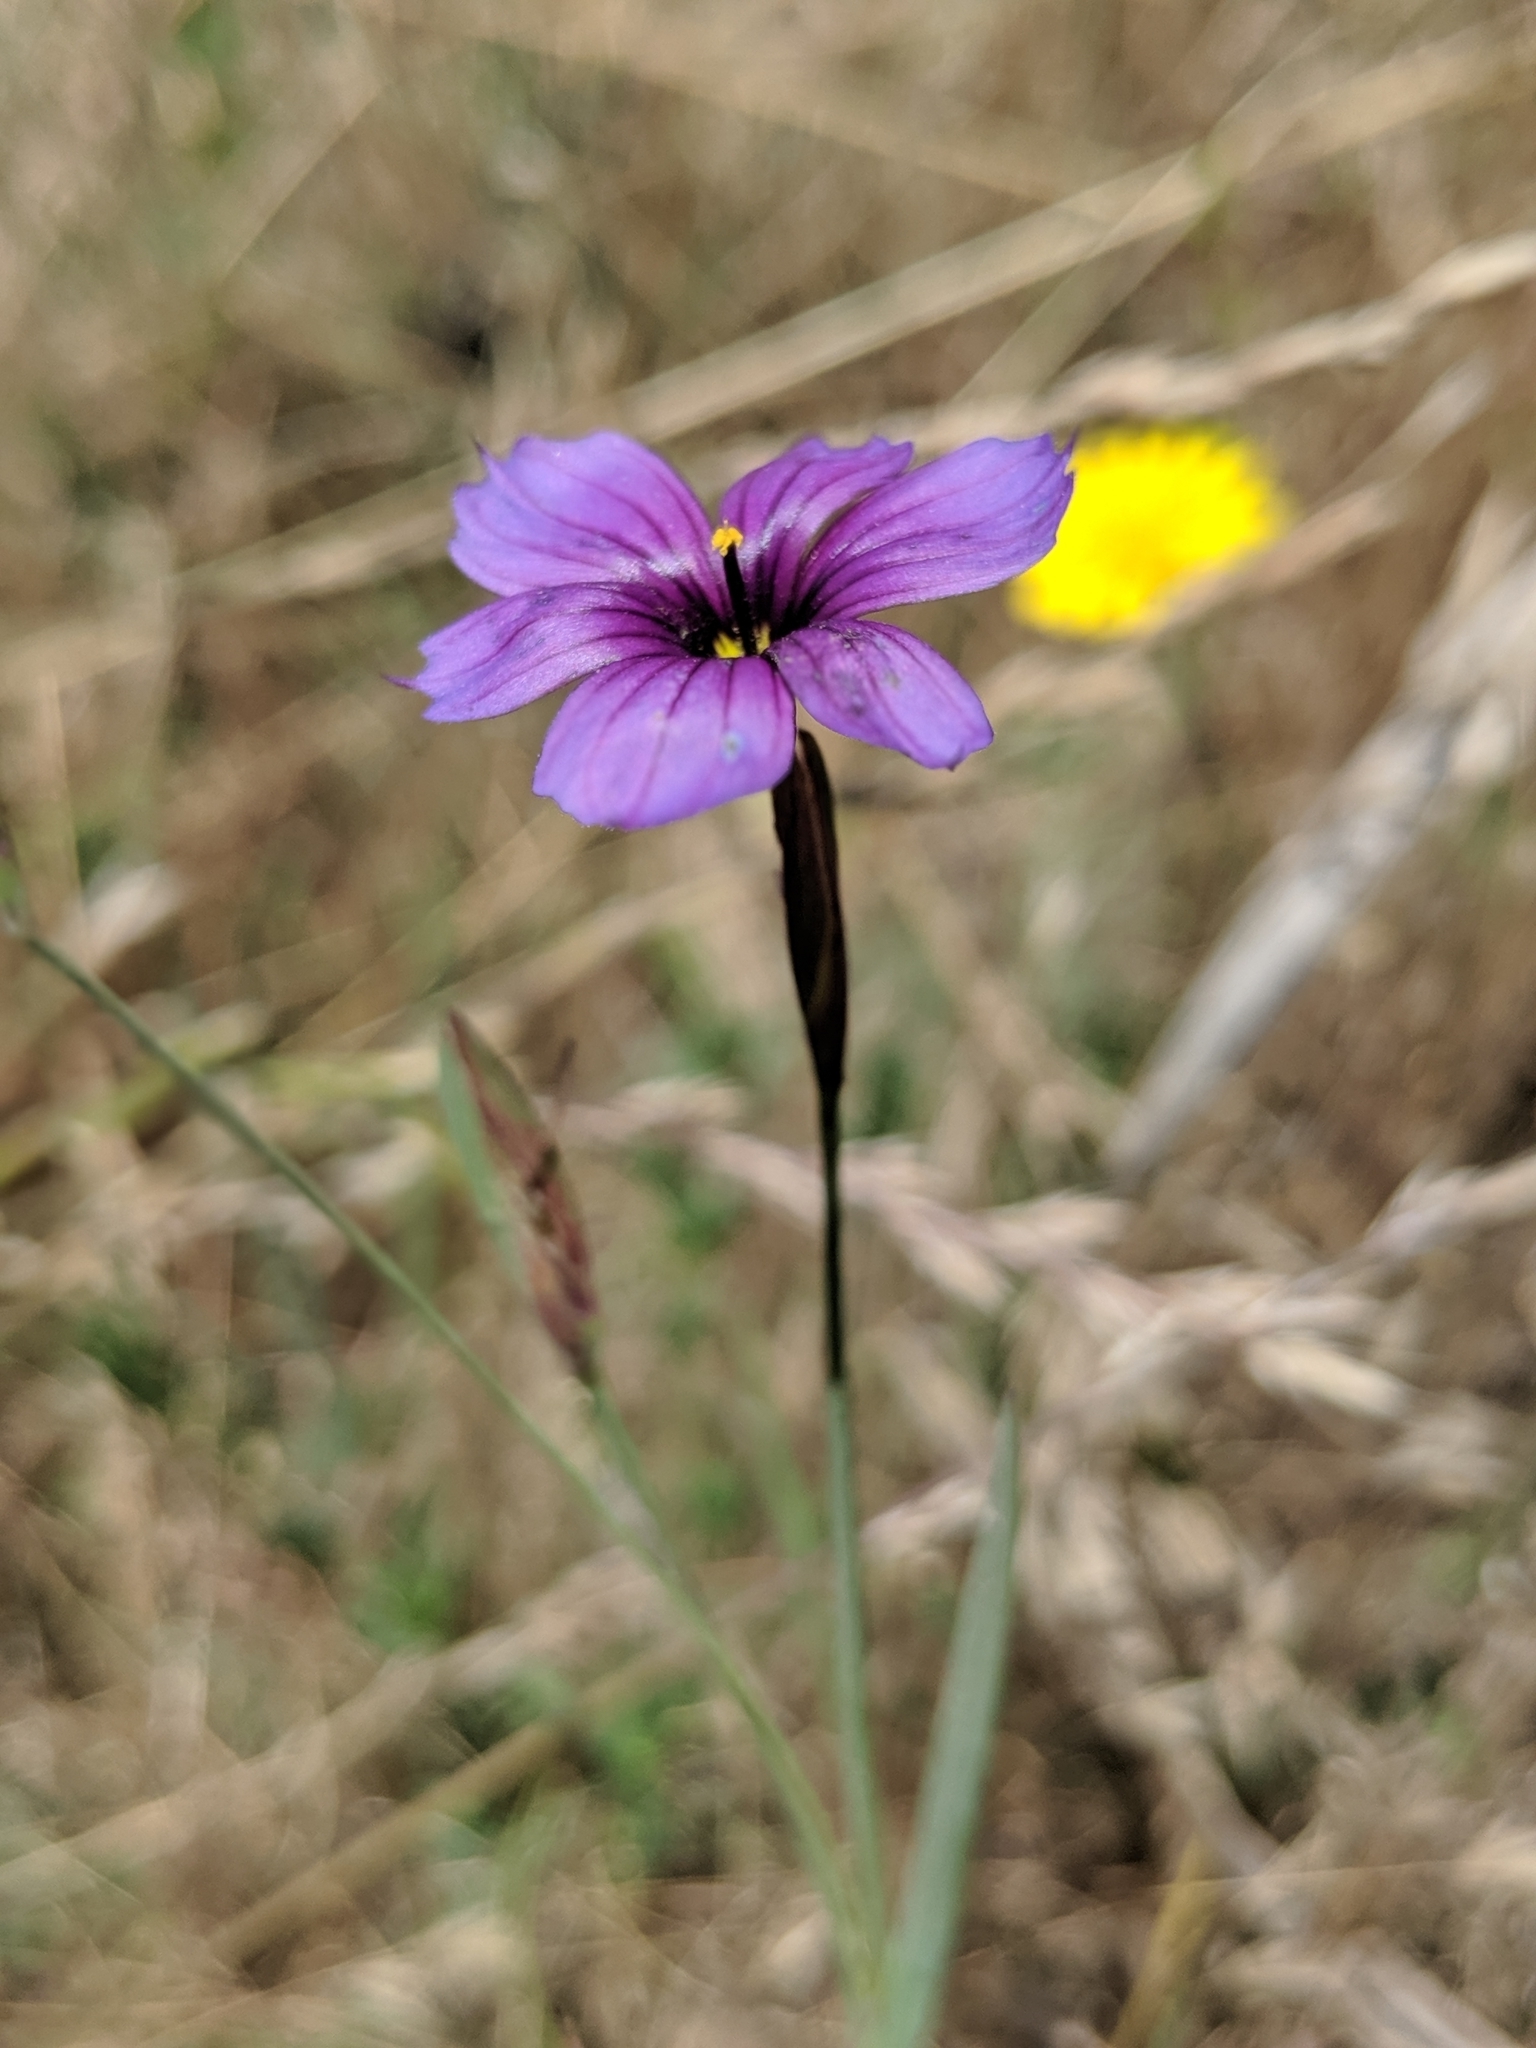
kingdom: Plantae
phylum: Tracheophyta
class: Liliopsida
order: Asparagales
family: Iridaceae
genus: Sisyrinchium
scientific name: Sisyrinchium bellum
